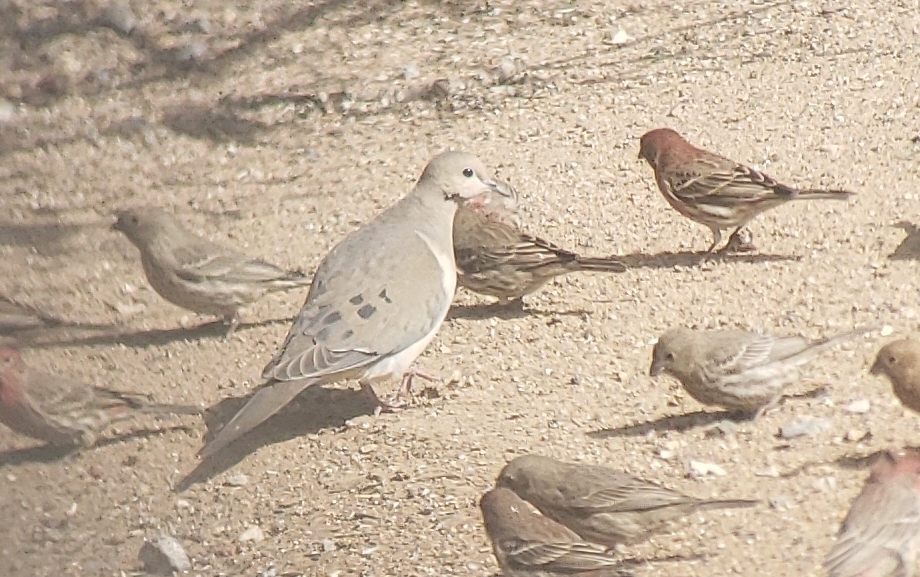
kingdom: Animalia
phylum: Chordata
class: Aves
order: Columbiformes
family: Columbidae
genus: Zenaida
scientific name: Zenaida macroura
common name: Mourning dove
